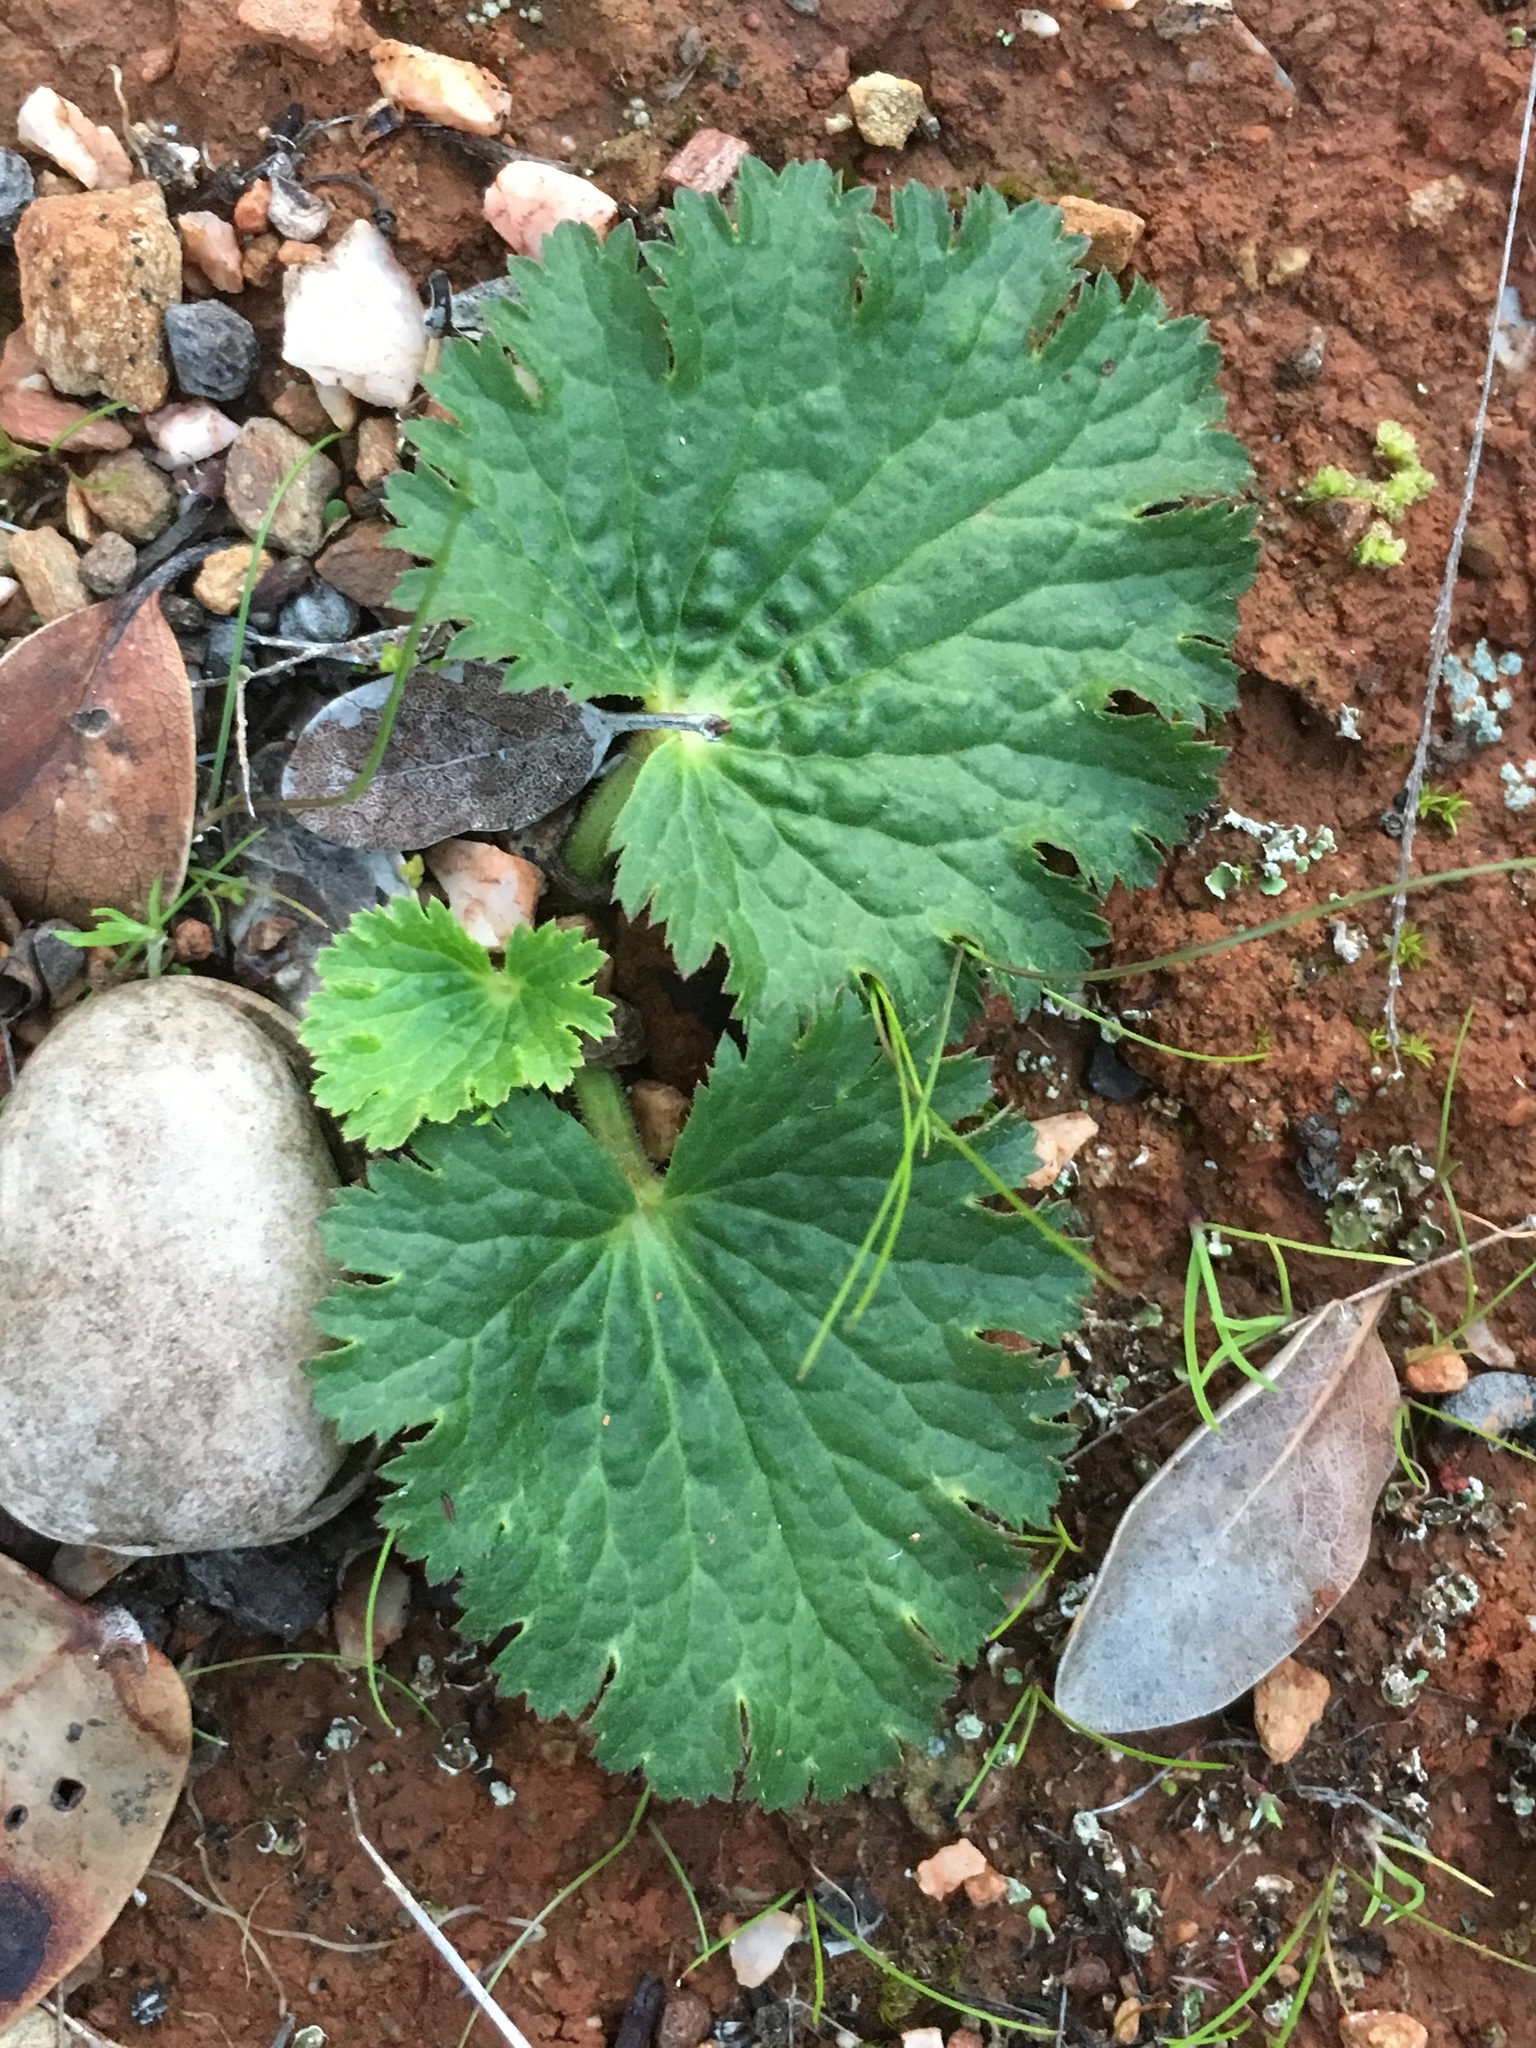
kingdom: Plantae
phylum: Tracheophyta
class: Magnoliopsida
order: Saxifragales
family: Saxifragaceae
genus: Jepsonia
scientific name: Jepsonia malvifolia
